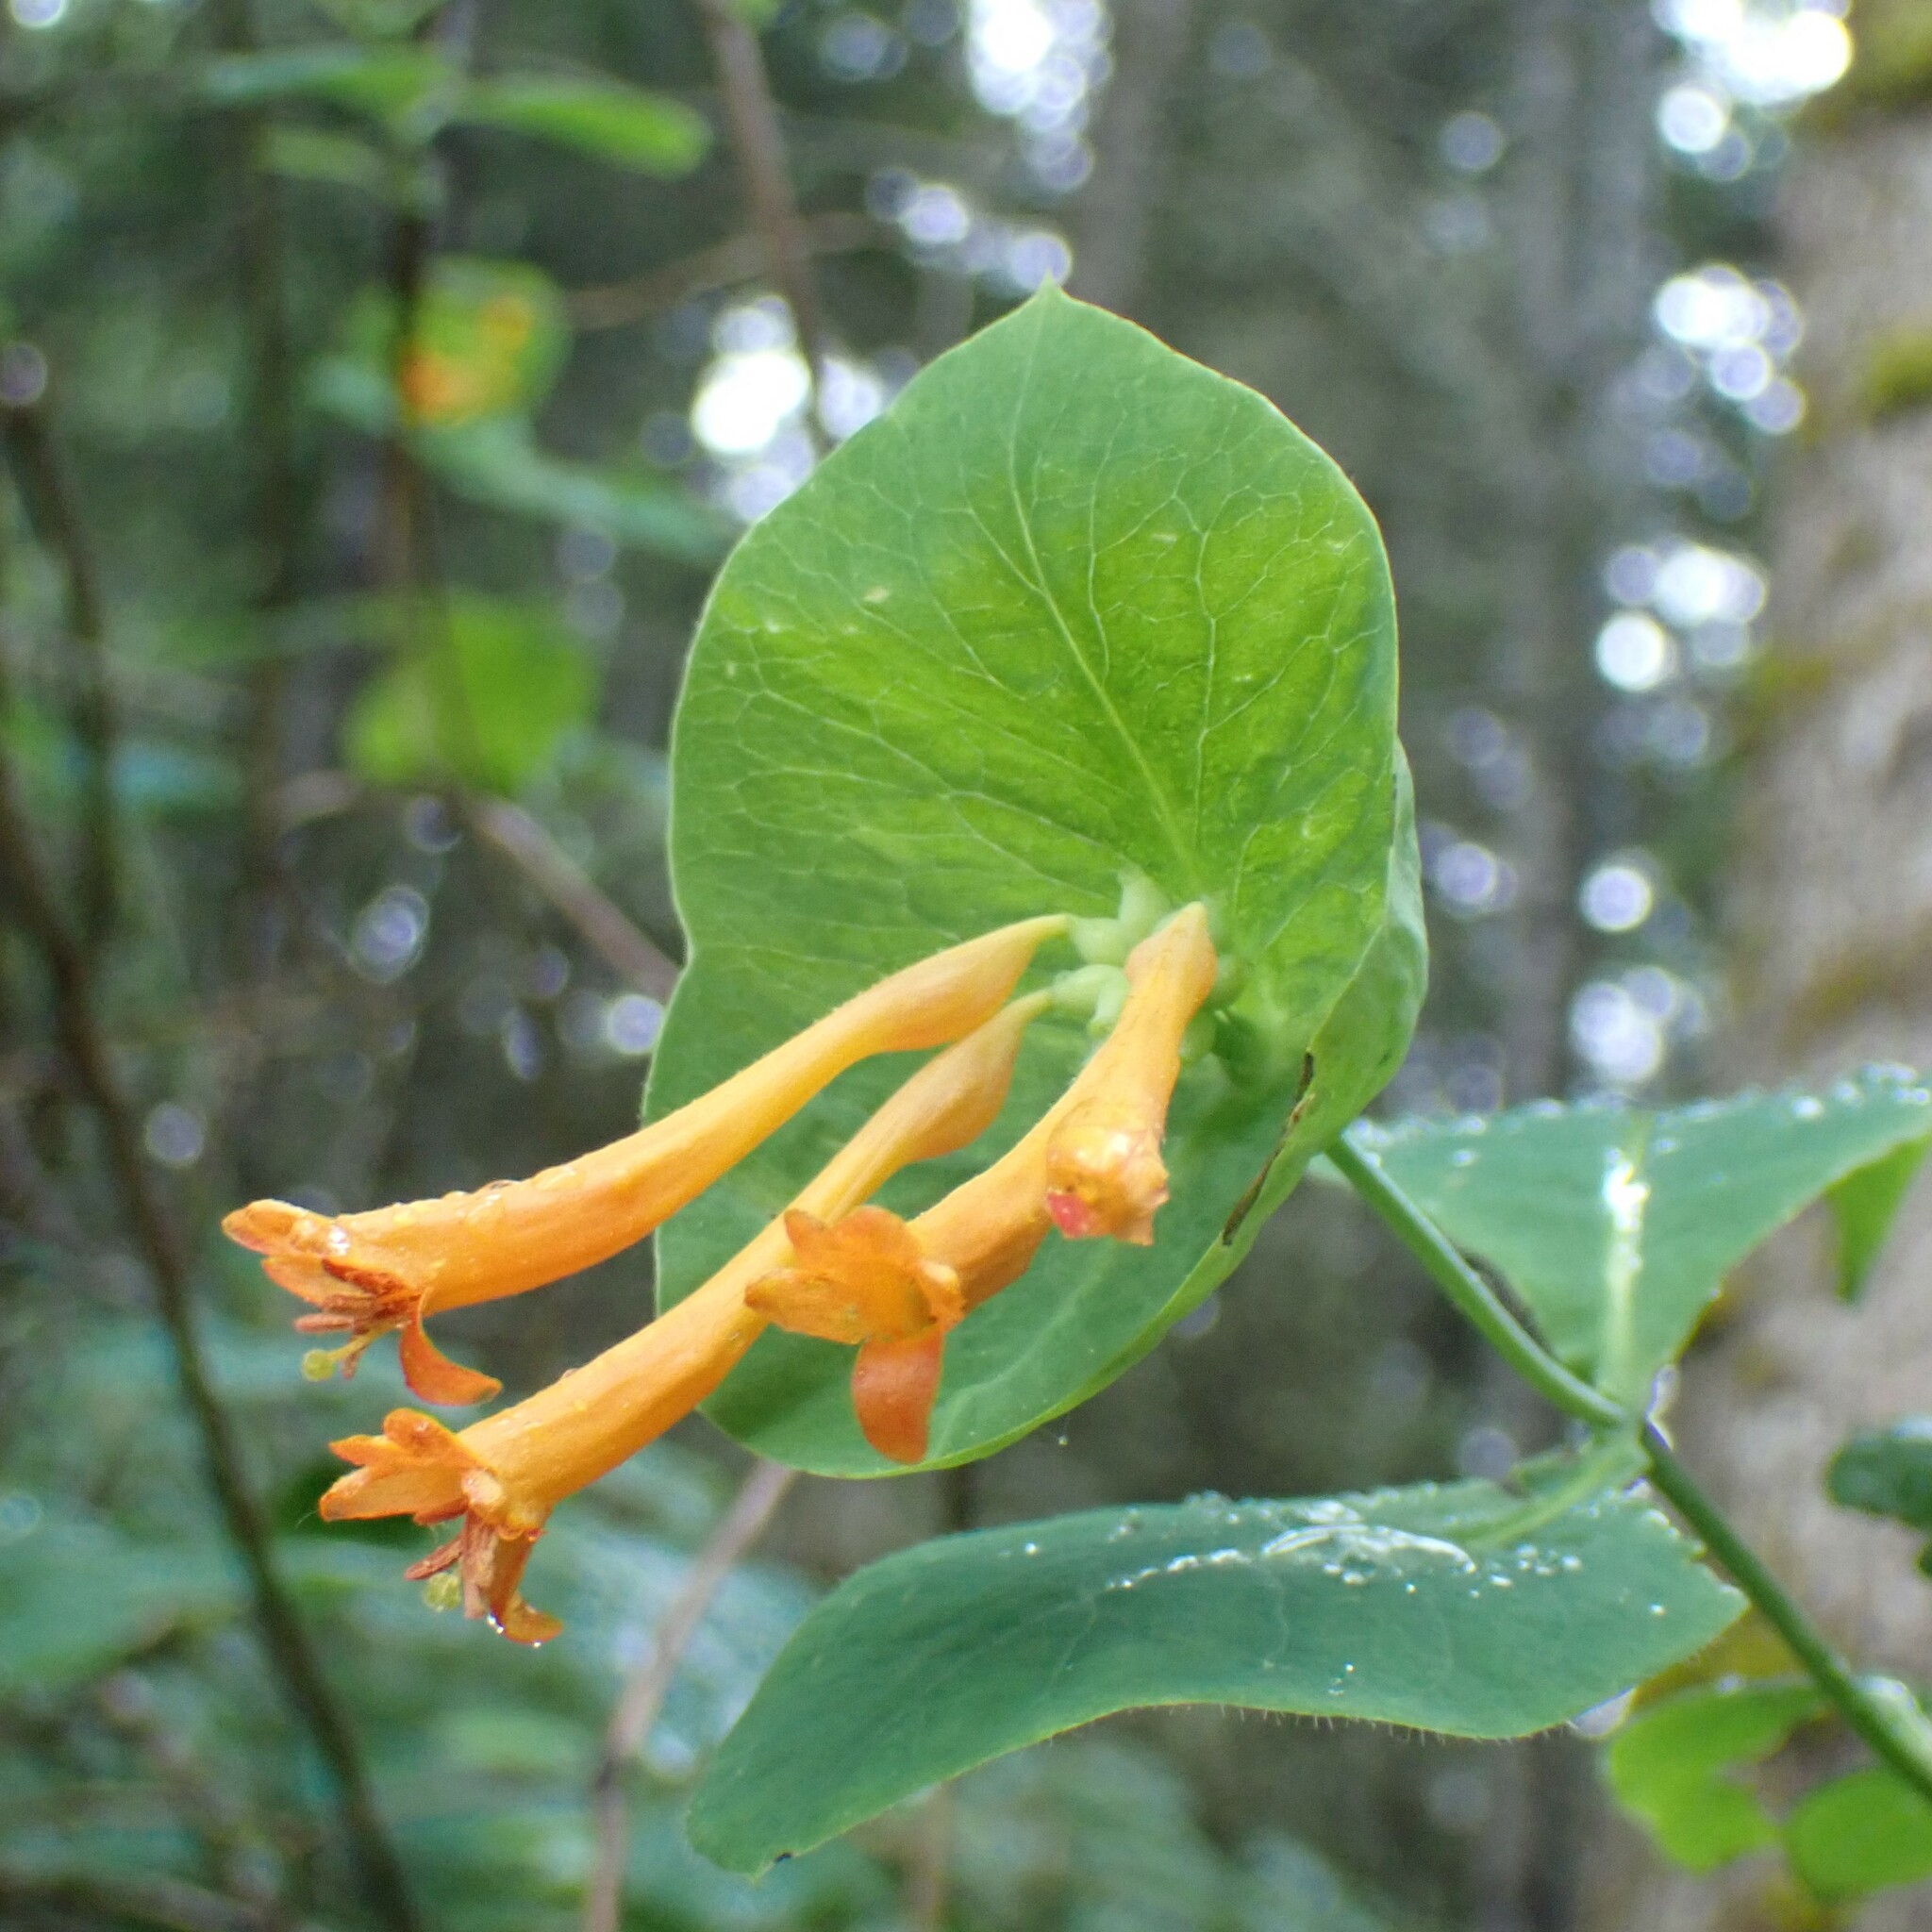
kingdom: Plantae
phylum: Tracheophyta
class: Magnoliopsida
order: Dipsacales
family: Caprifoliaceae
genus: Lonicera
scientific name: Lonicera ciliosa
